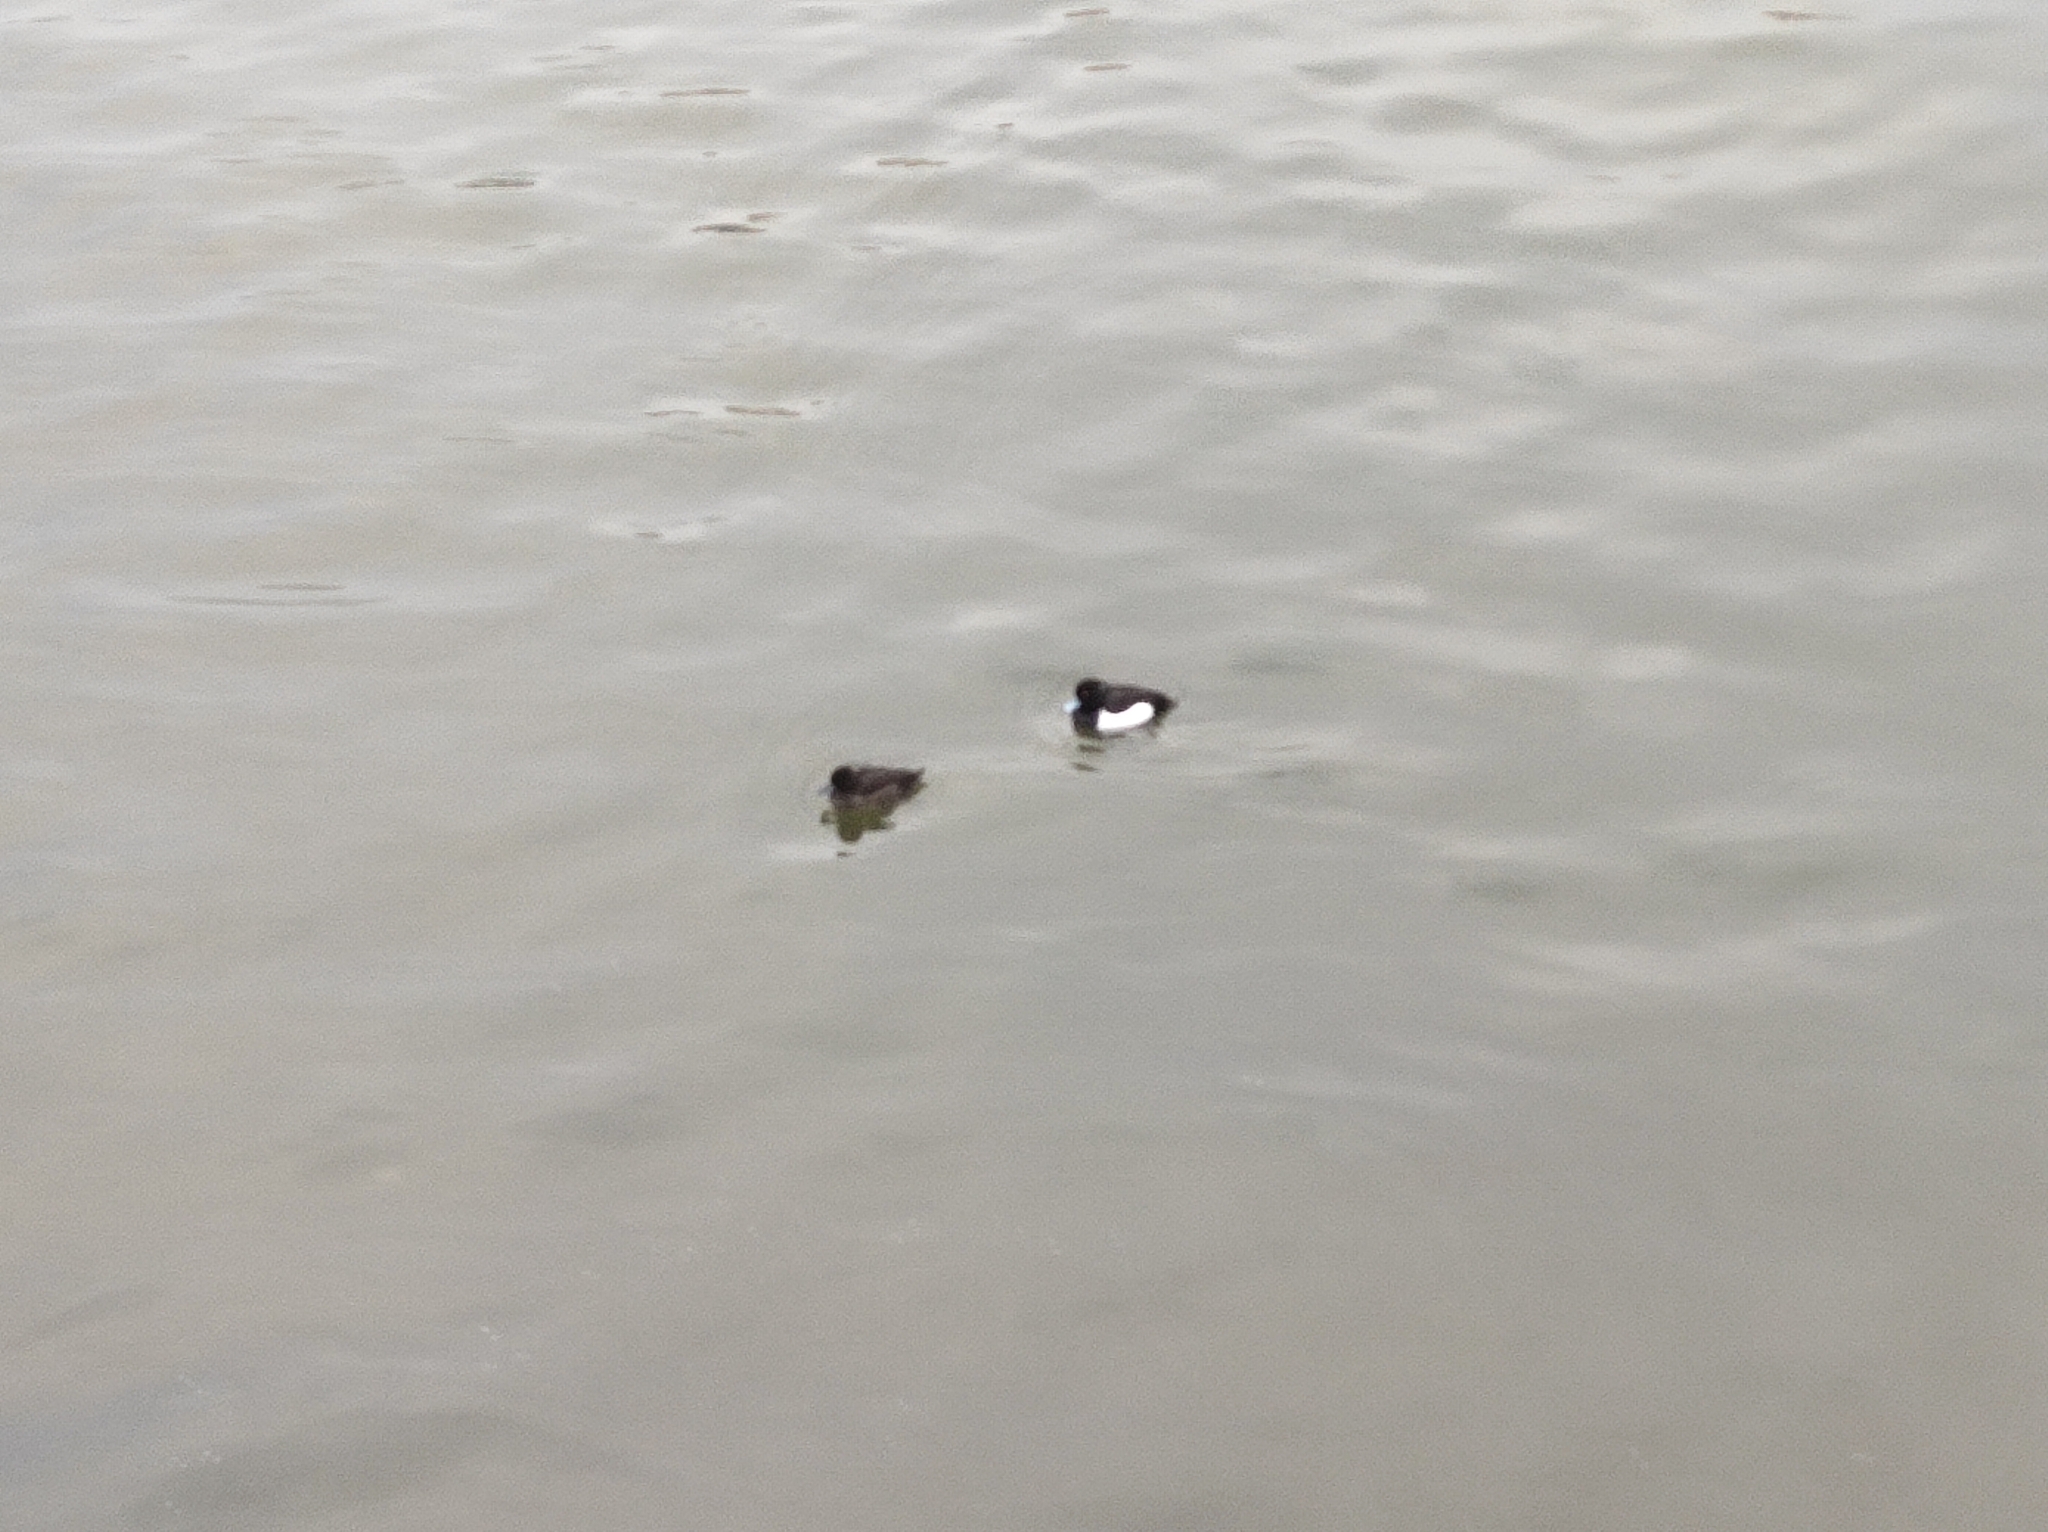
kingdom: Animalia
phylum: Chordata
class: Aves
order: Anseriformes
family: Anatidae
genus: Aythya
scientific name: Aythya fuligula
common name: Tufted duck
